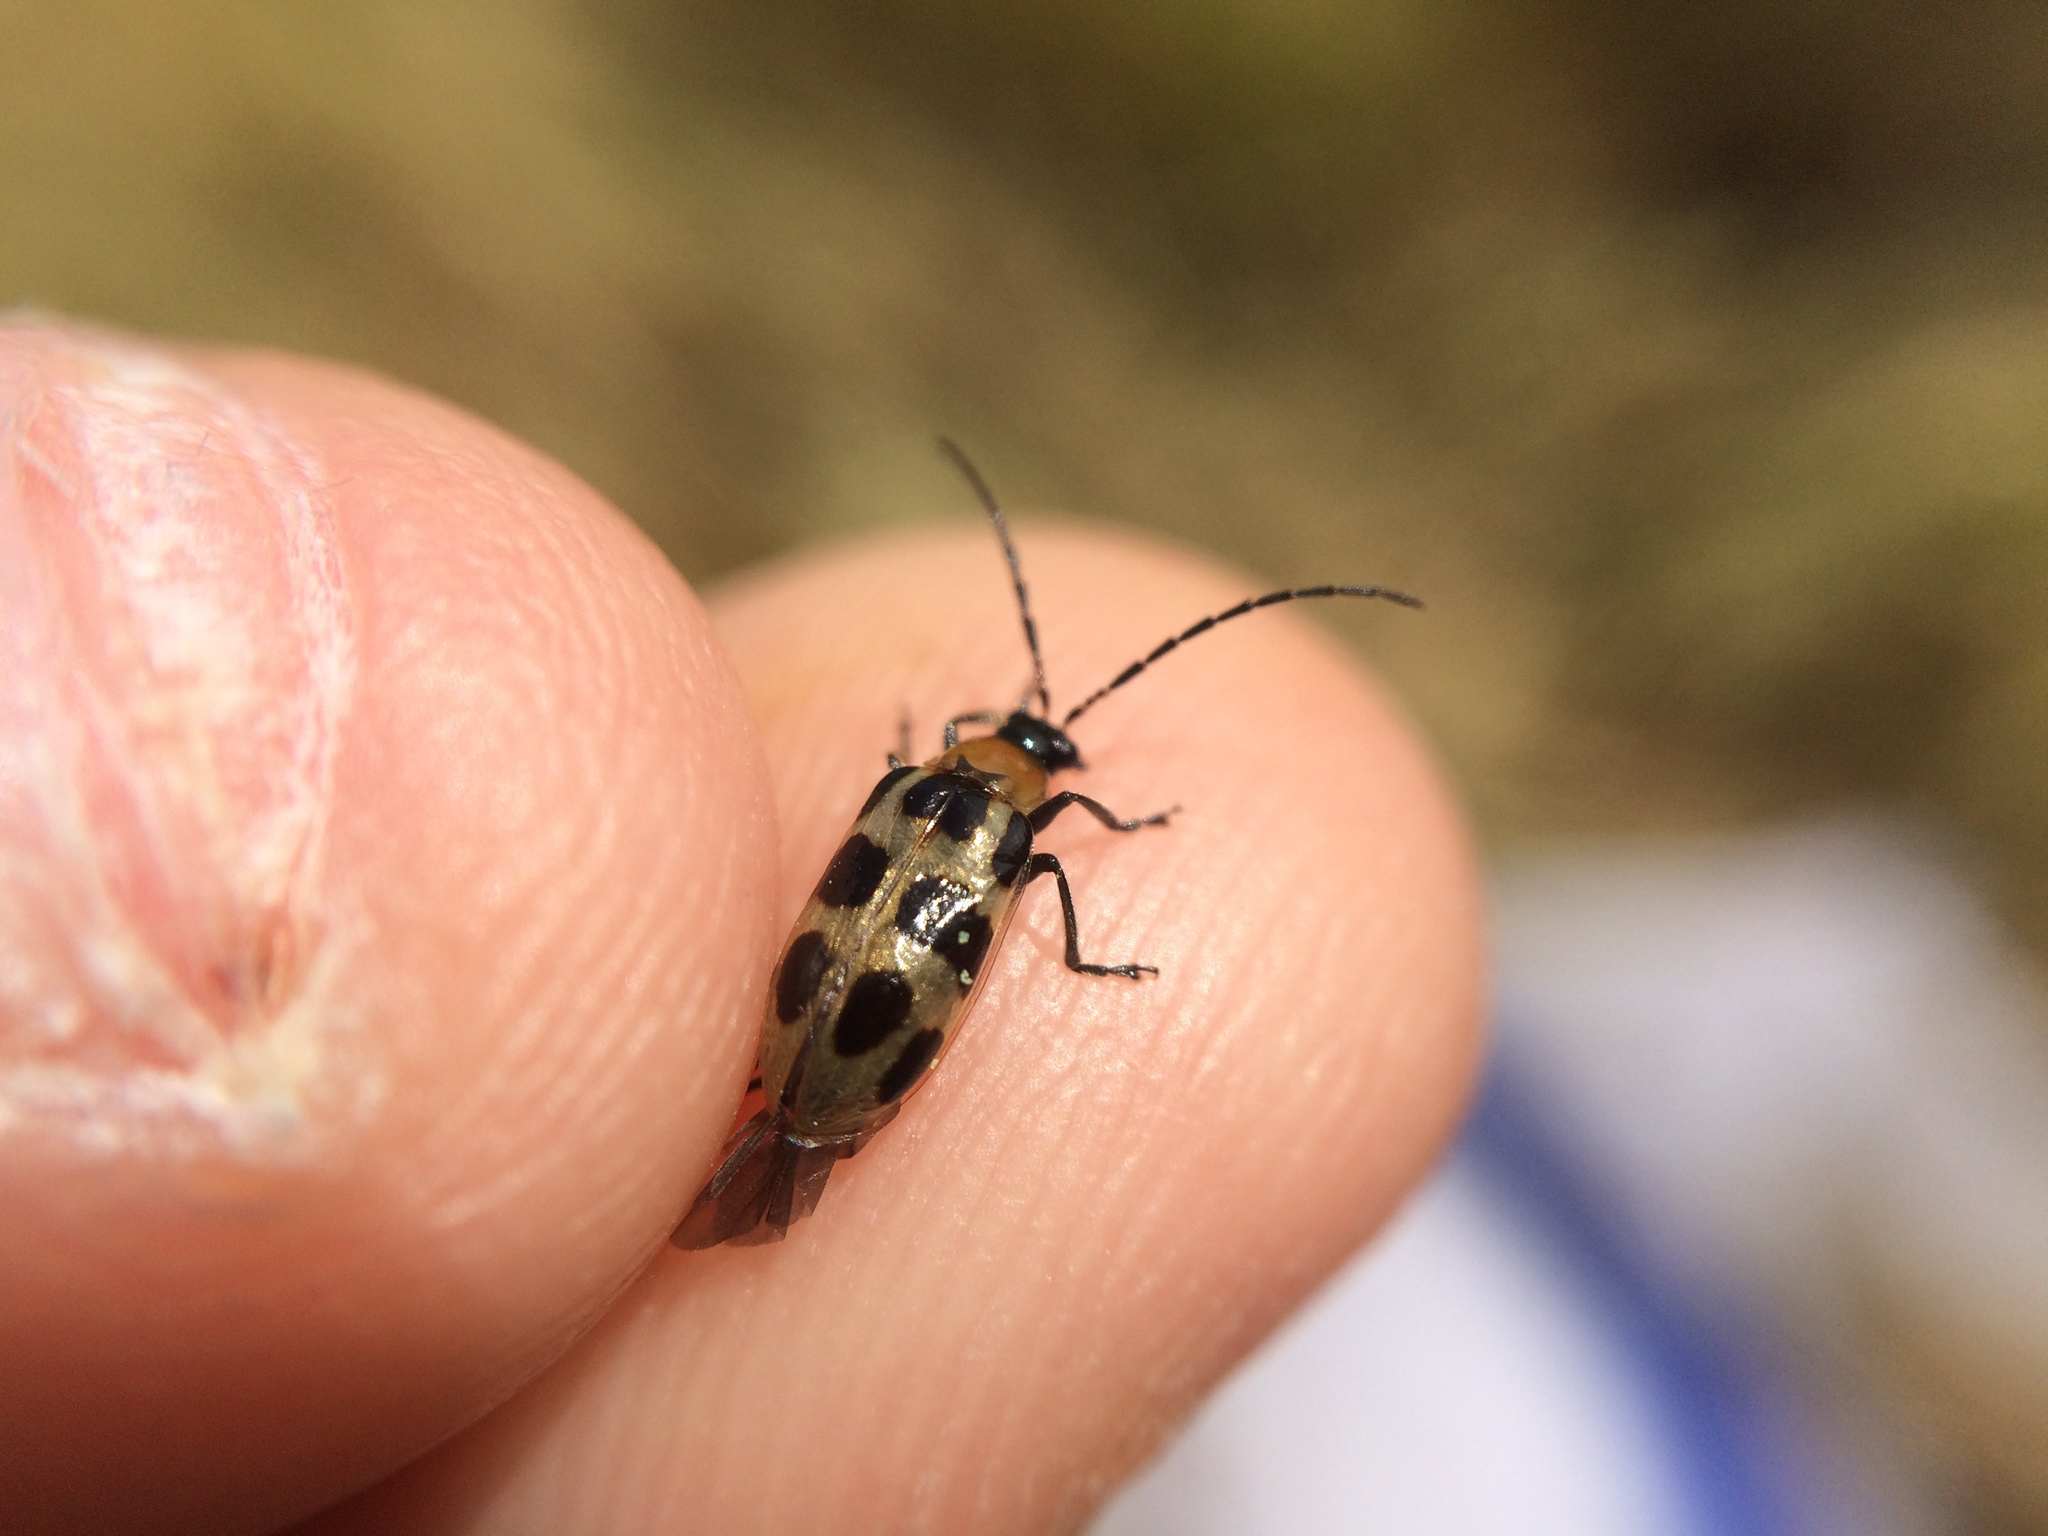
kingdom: Animalia
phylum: Arthropoda
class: Insecta
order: Coleoptera
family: Chrysomelidae
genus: Diabrotica
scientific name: Diabrotica undecimpunctata
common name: Spotted cucumber beetle
